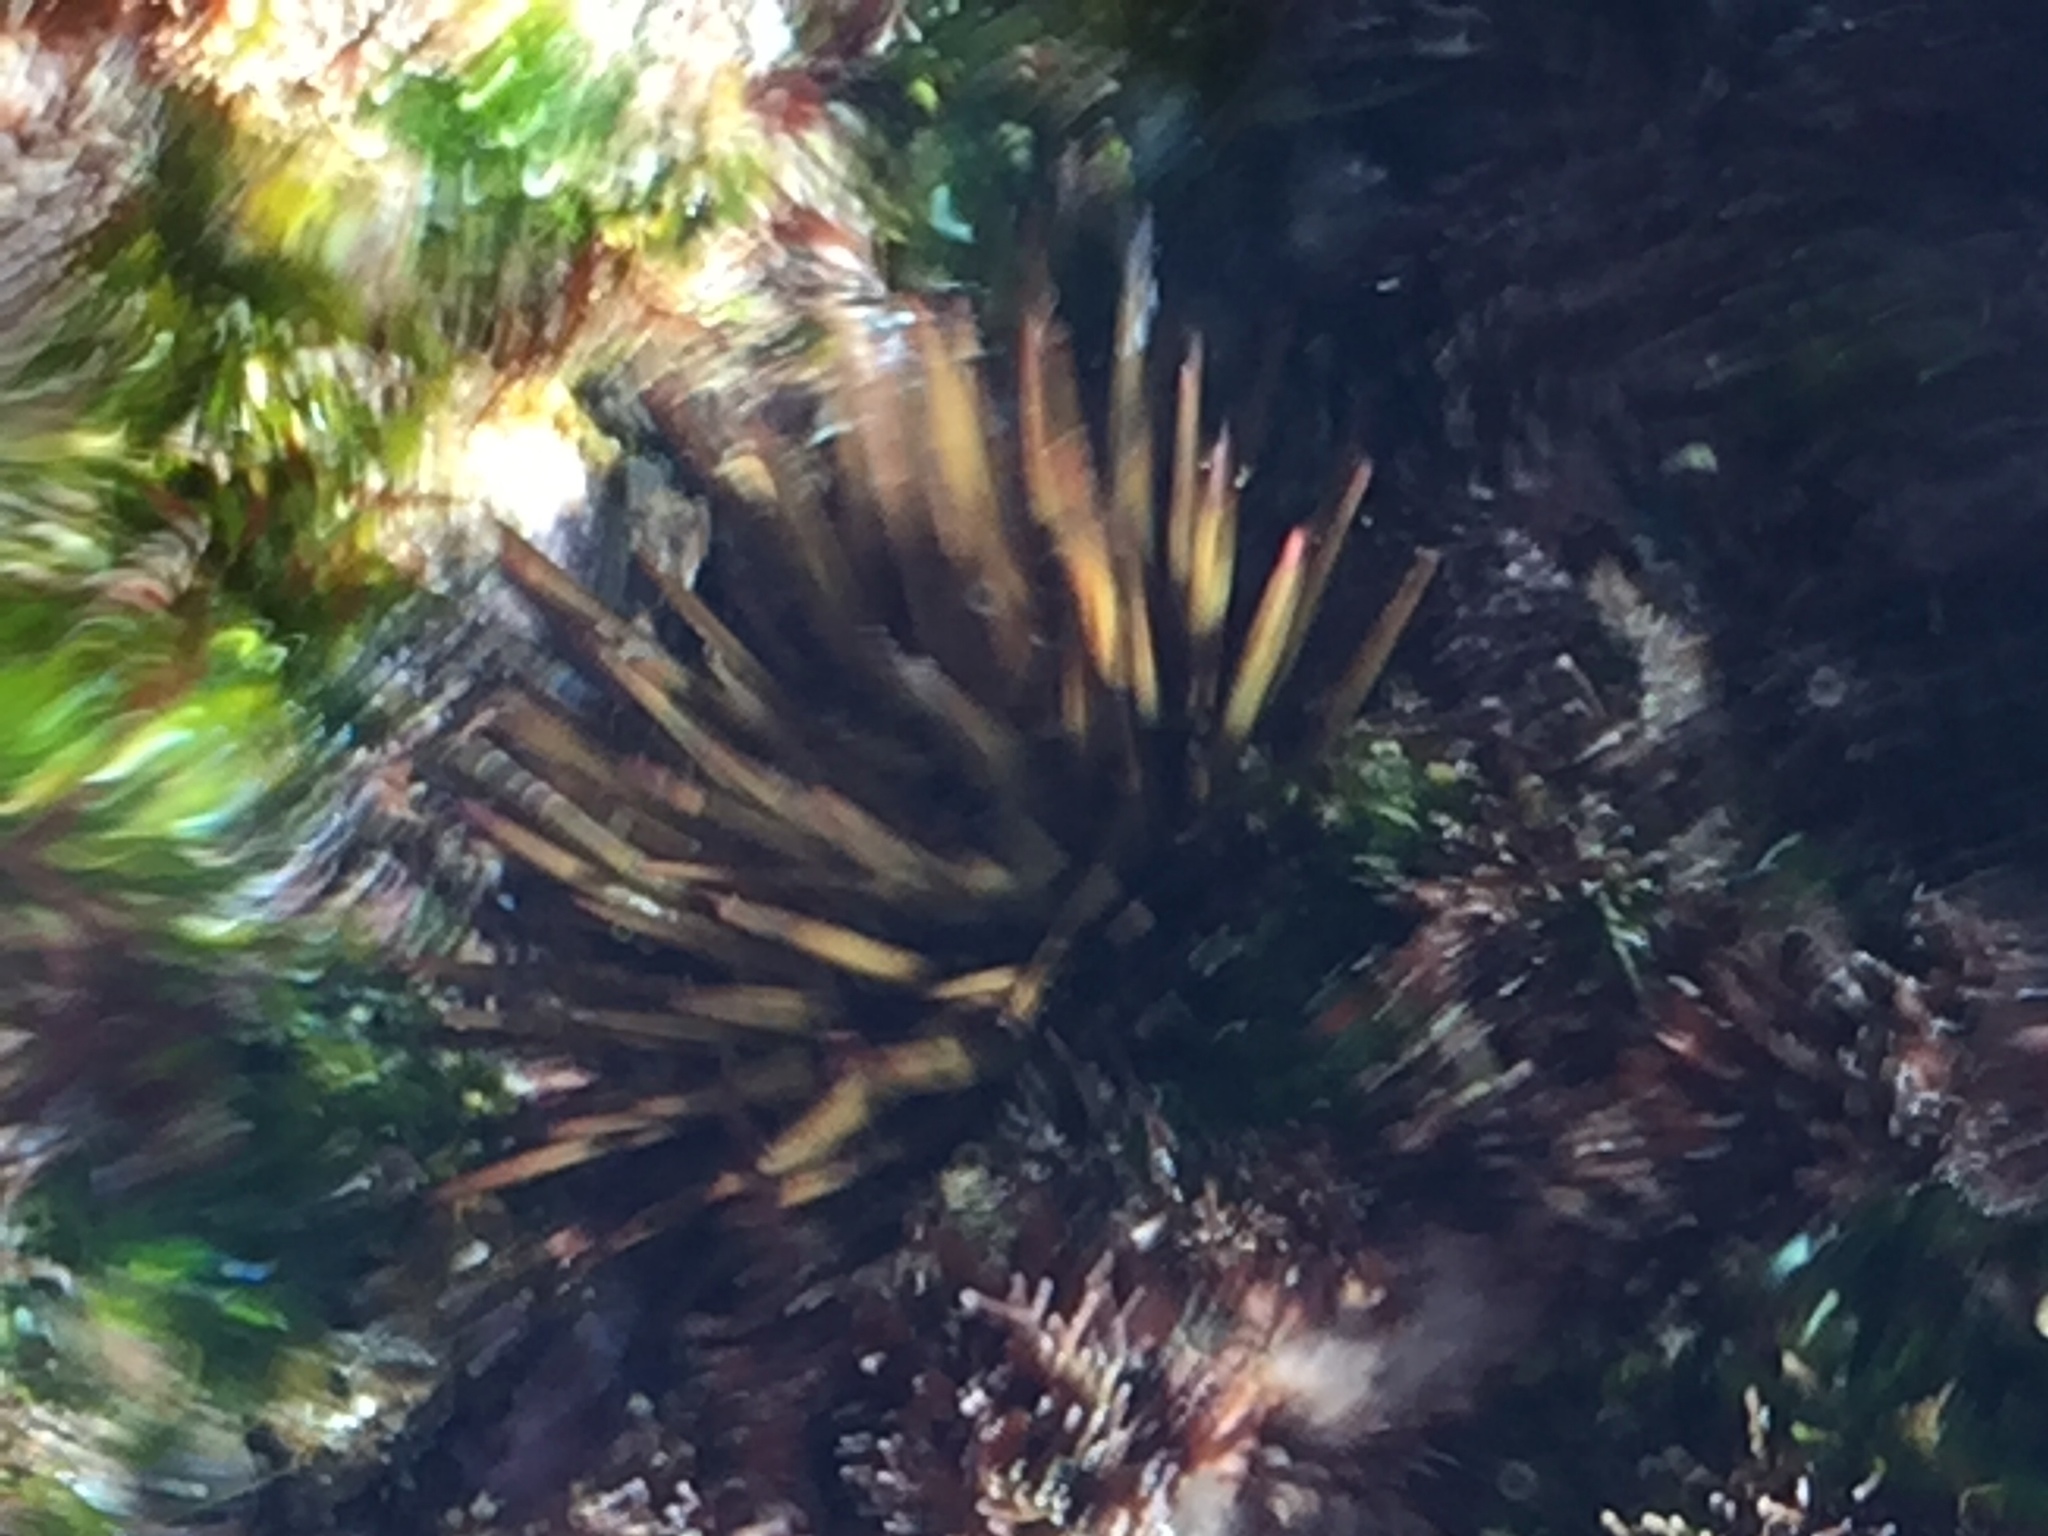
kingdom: Animalia
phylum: Echinodermata
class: Echinoidea
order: Camarodonta
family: Parechinidae
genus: Paracentrotus
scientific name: Paracentrotus lividus
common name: Purple sea urchin
